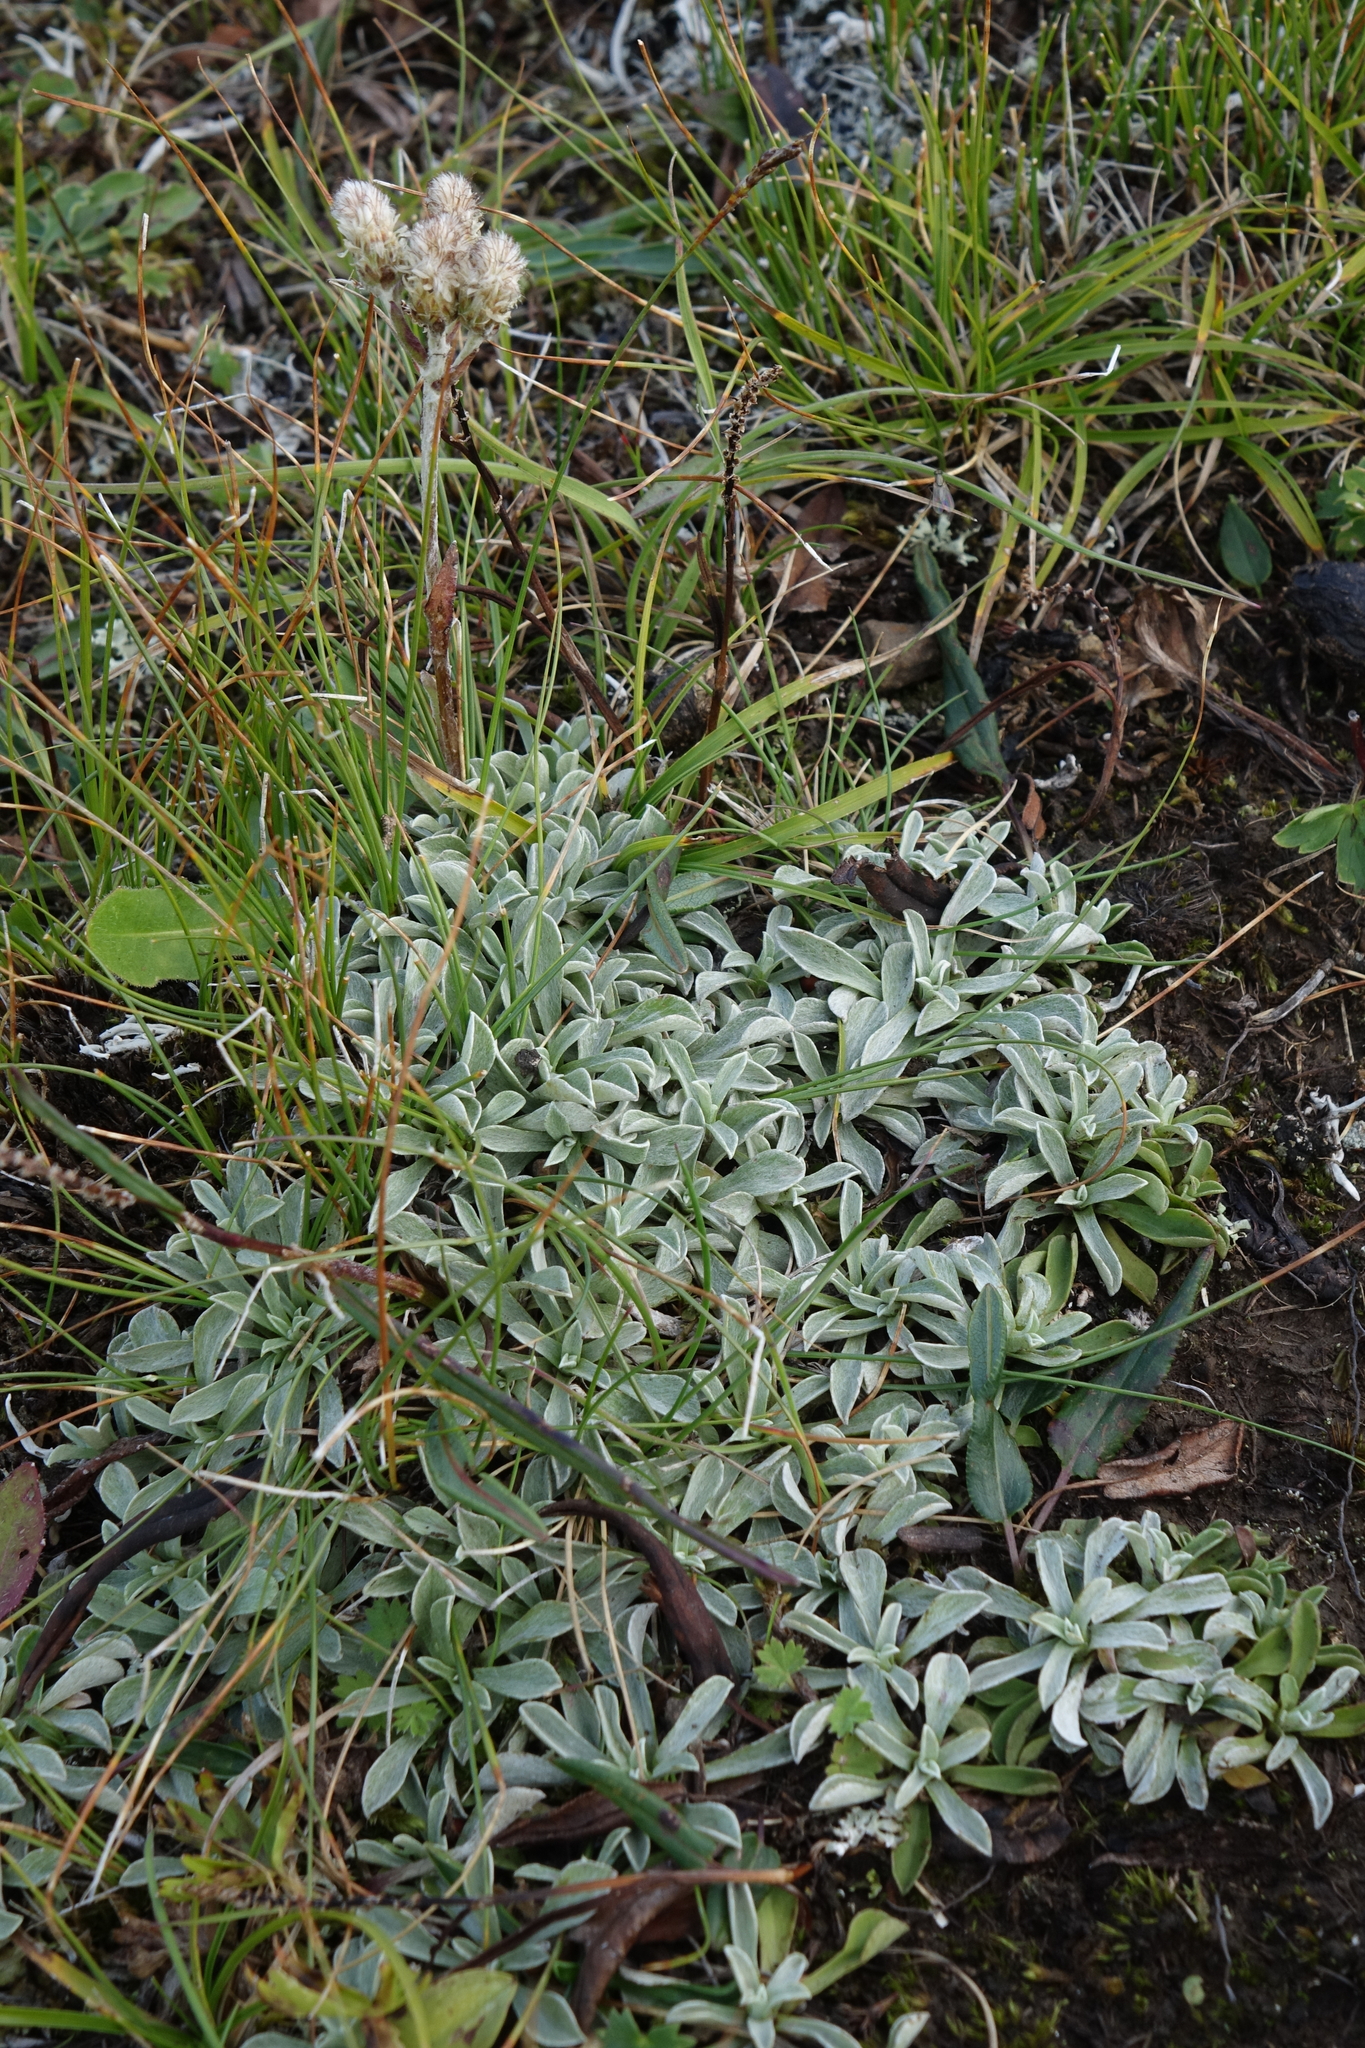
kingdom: Plantae
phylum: Tracheophyta
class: Magnoliopsida
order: Asterales
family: Asteraceae
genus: Antennaria
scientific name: Antennaria caucasica
